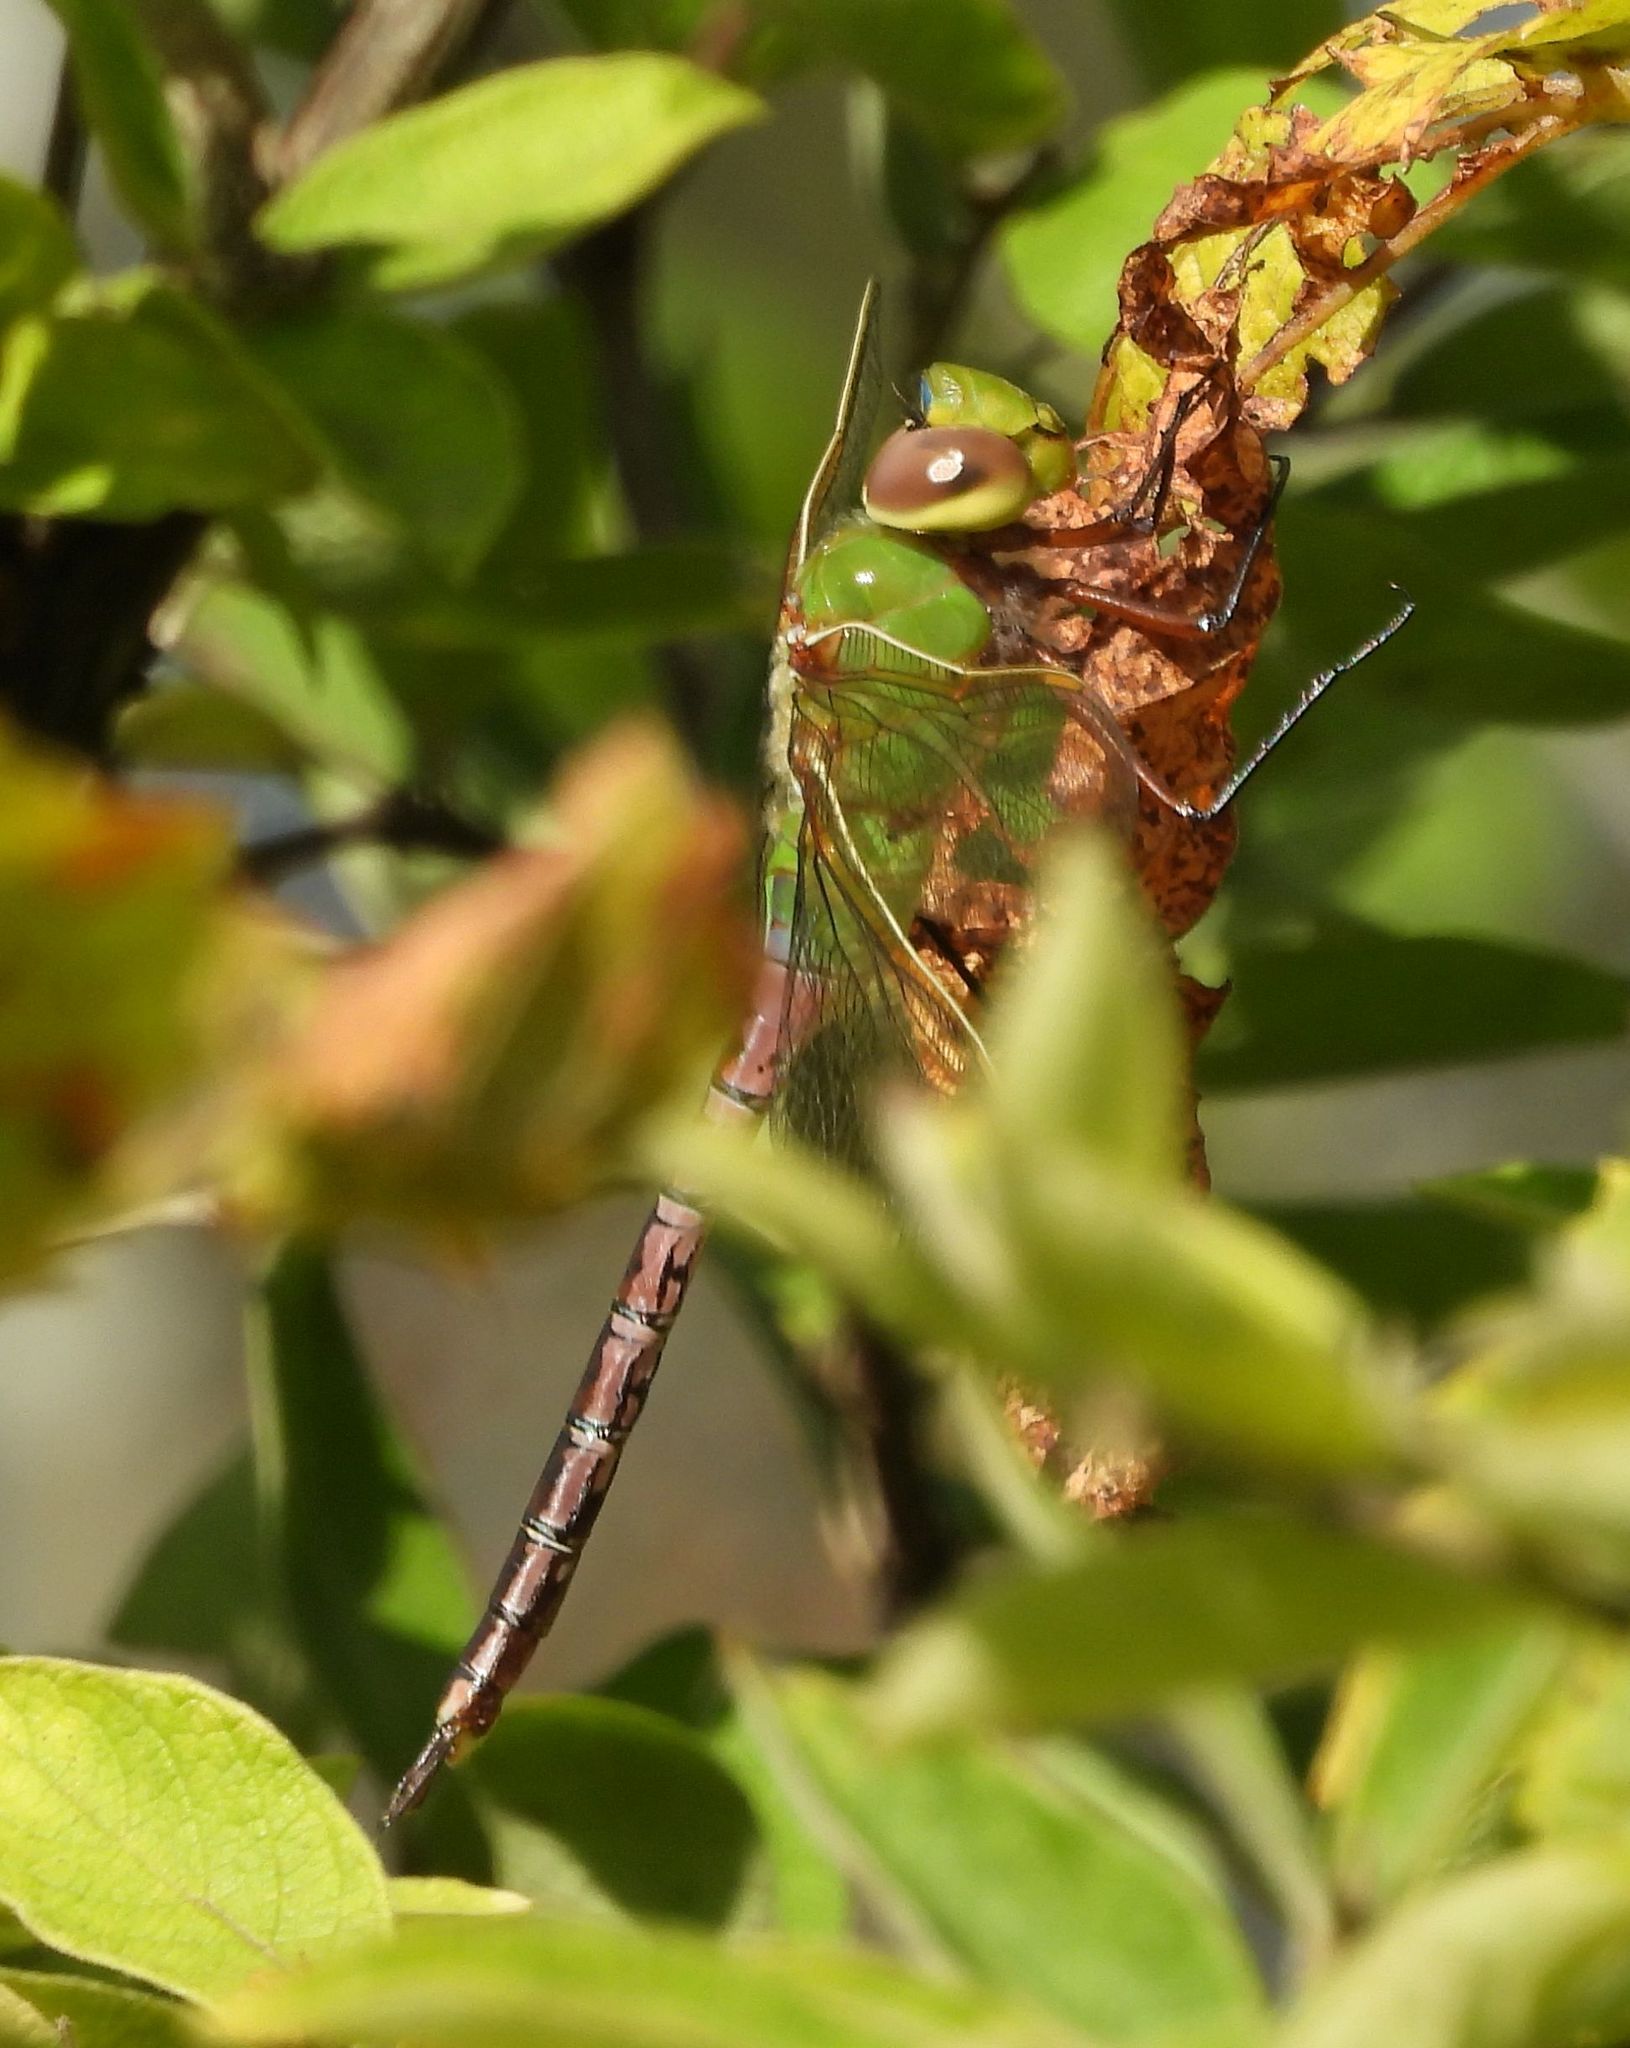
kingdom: Animalia
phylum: Arthropoda
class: Insecta
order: Odonata
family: Aeshnidae
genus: Anax
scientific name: Anax junius
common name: Common green darner
